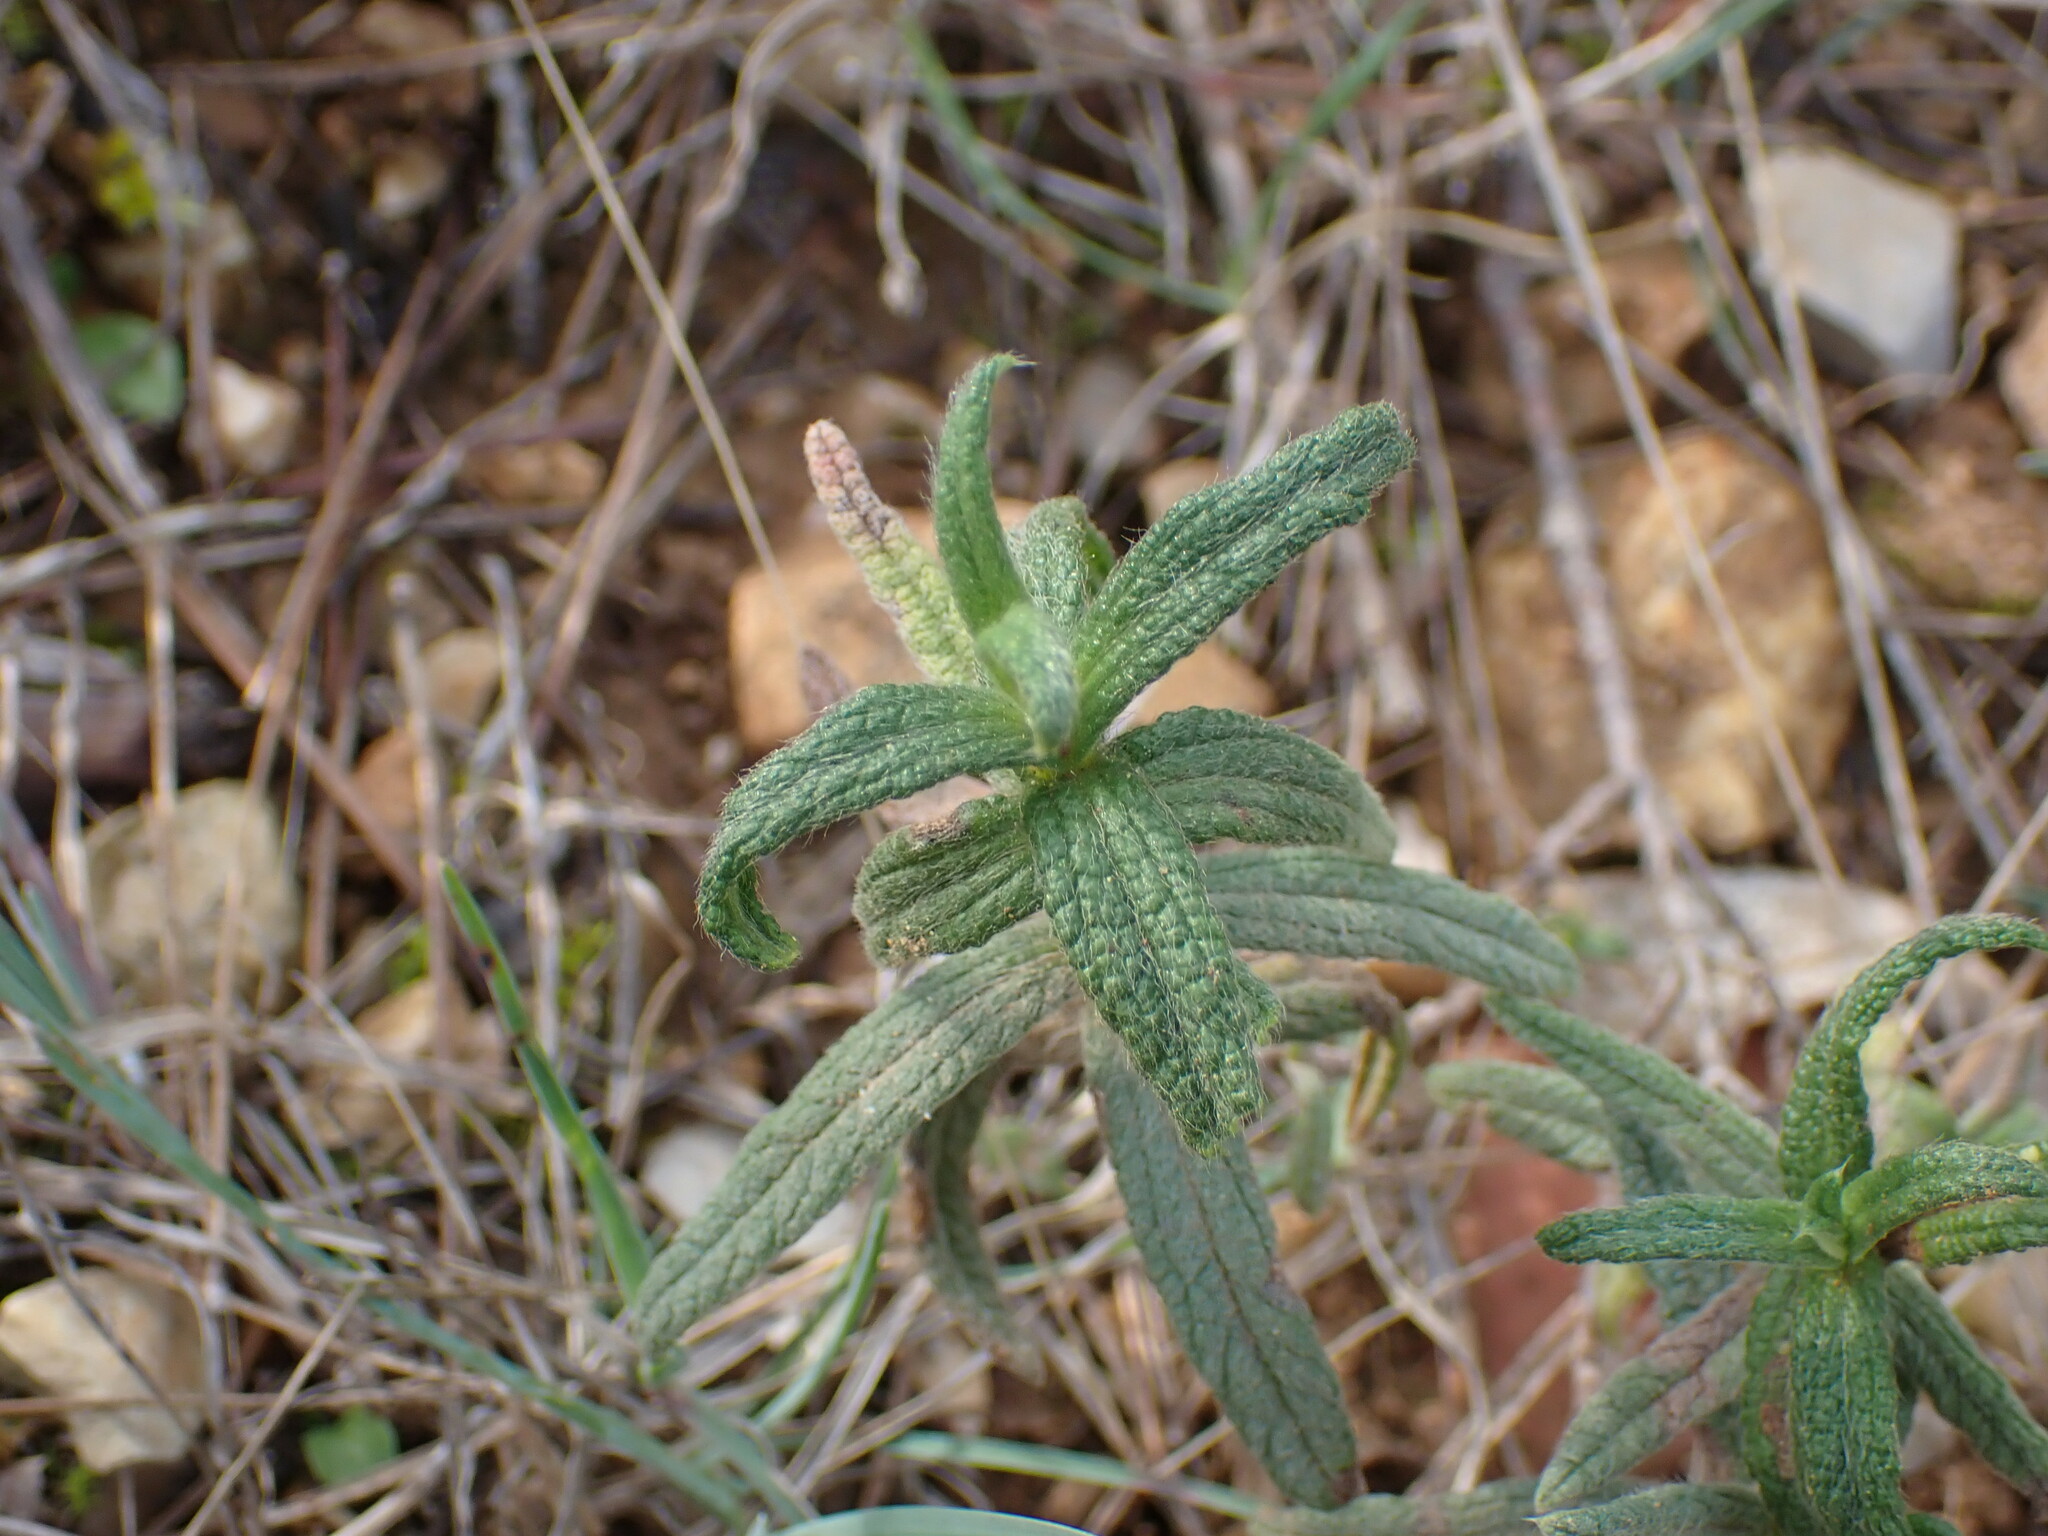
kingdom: Plantae
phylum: Tracheophyta
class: Magnoliopsida
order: Malvales
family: Cistaceae
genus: Cistus
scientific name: Cistus monspeliensis
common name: Montpelier cistus
